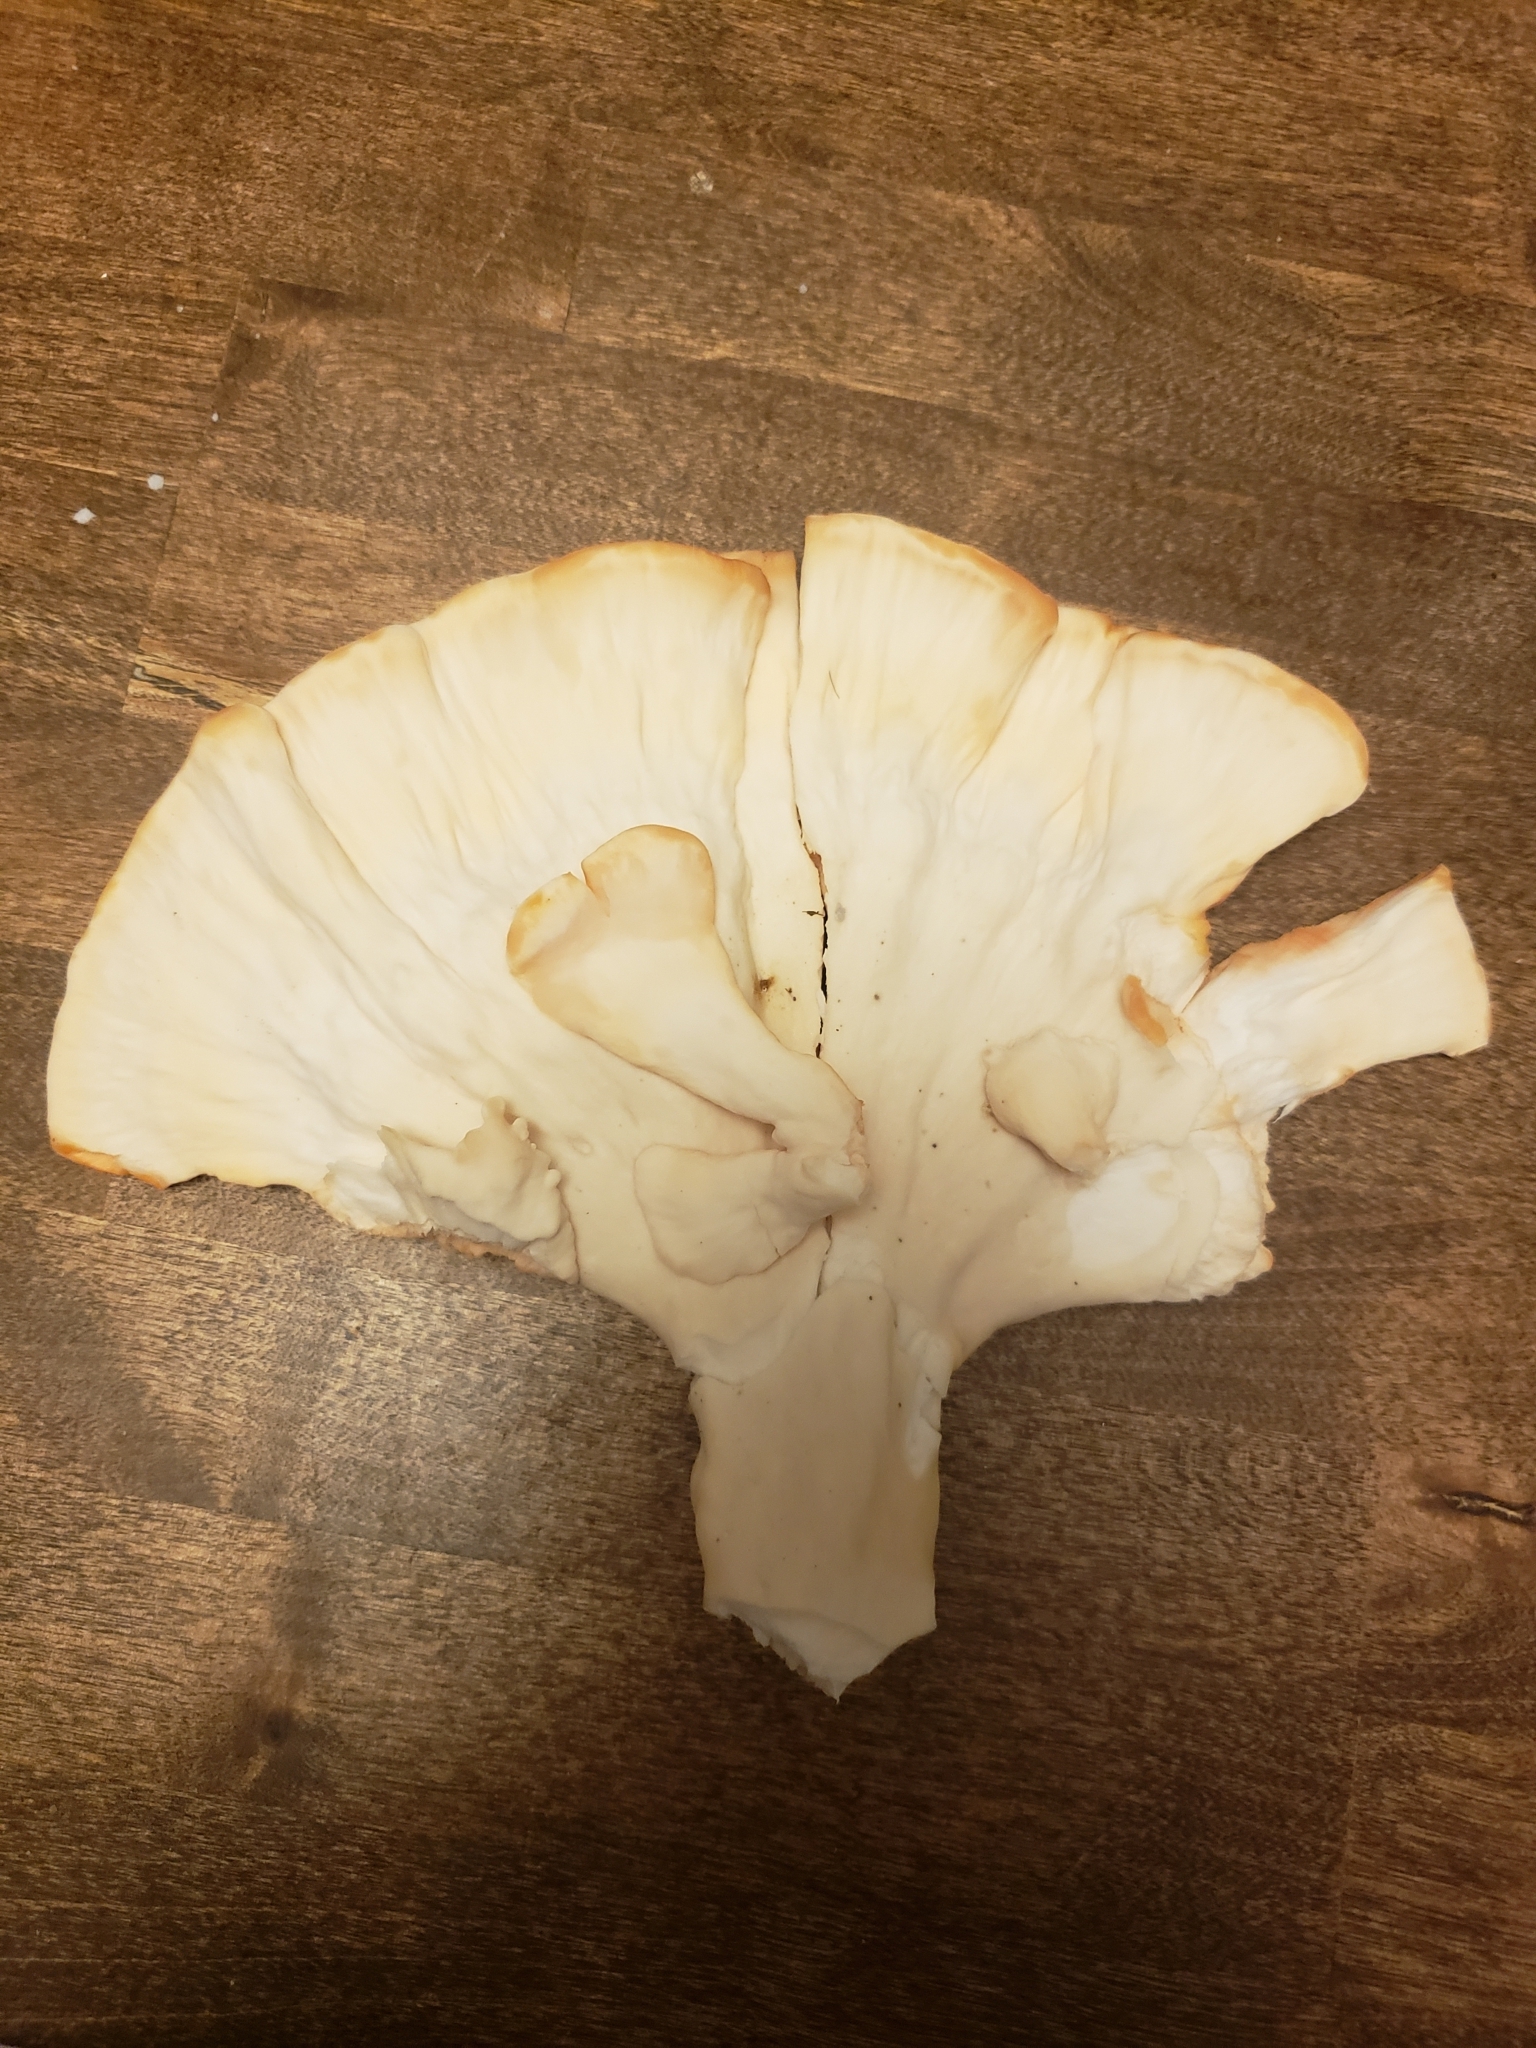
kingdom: Fungi
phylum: Basidiomycota
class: Agaricomycetes
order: Polyporales
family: Laetiporaceae
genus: Laetiporus
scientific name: Laetiporus sulphureus
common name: Chicken of the woods
